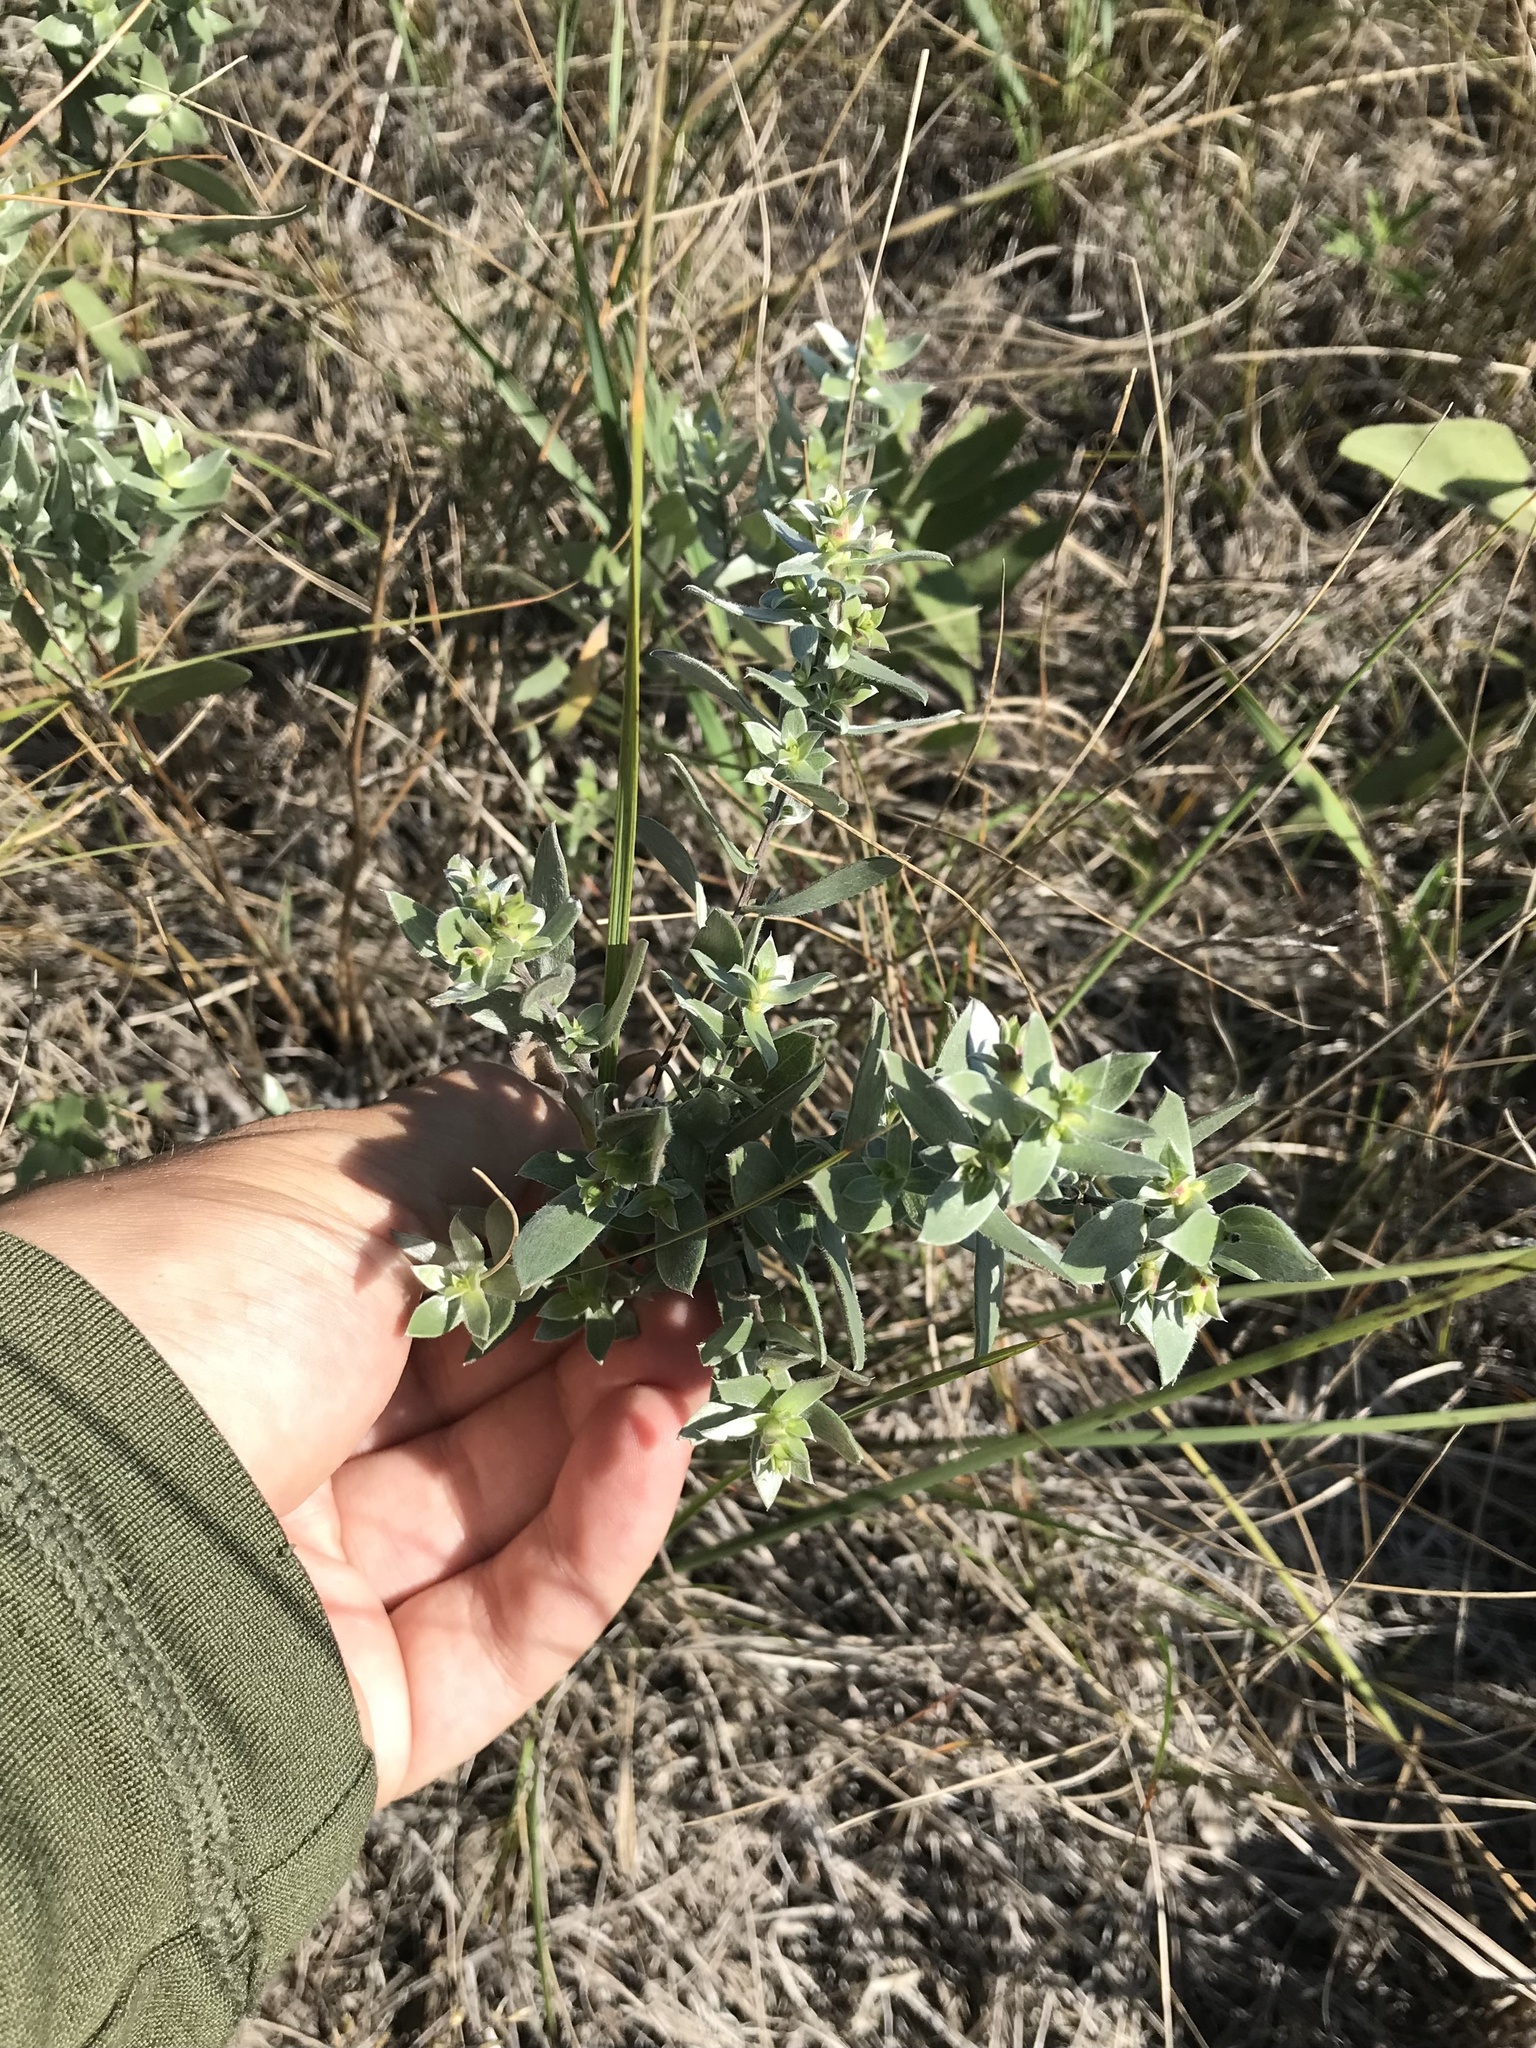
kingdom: Plantae
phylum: Tracheophyta
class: Magnoliopsida
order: Asterales
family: Asteraceae
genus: Symphyotrichum
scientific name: Symphyotrichum sericeum
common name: Silky aster
